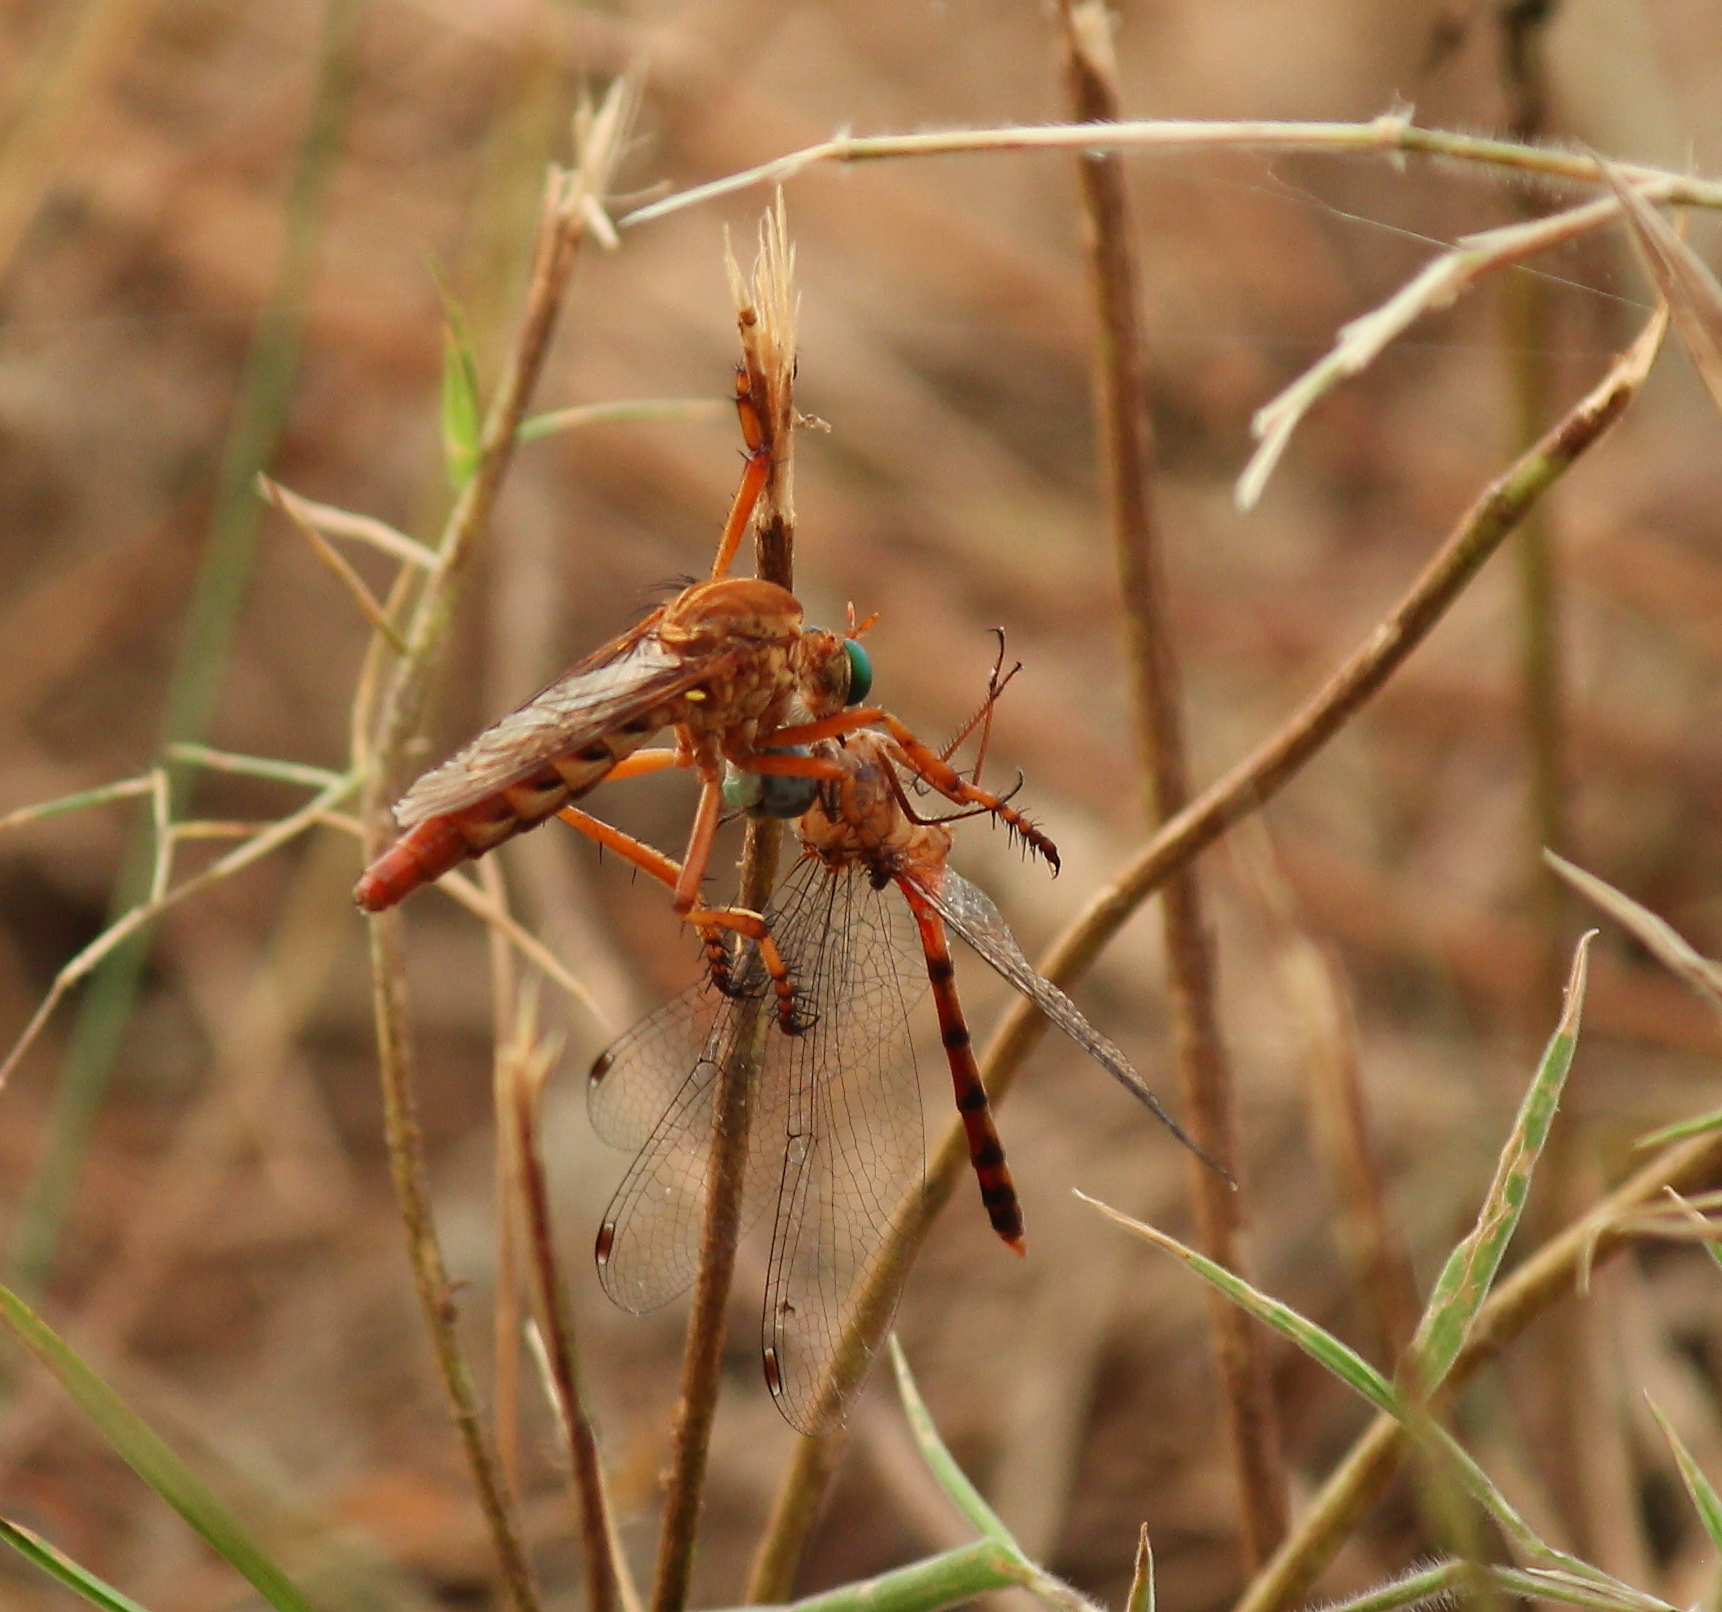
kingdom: Animalia
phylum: Arthropoda
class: Insecta
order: Diptera
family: Asilidae
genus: Diogmites
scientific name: Diogmites angustipennis
